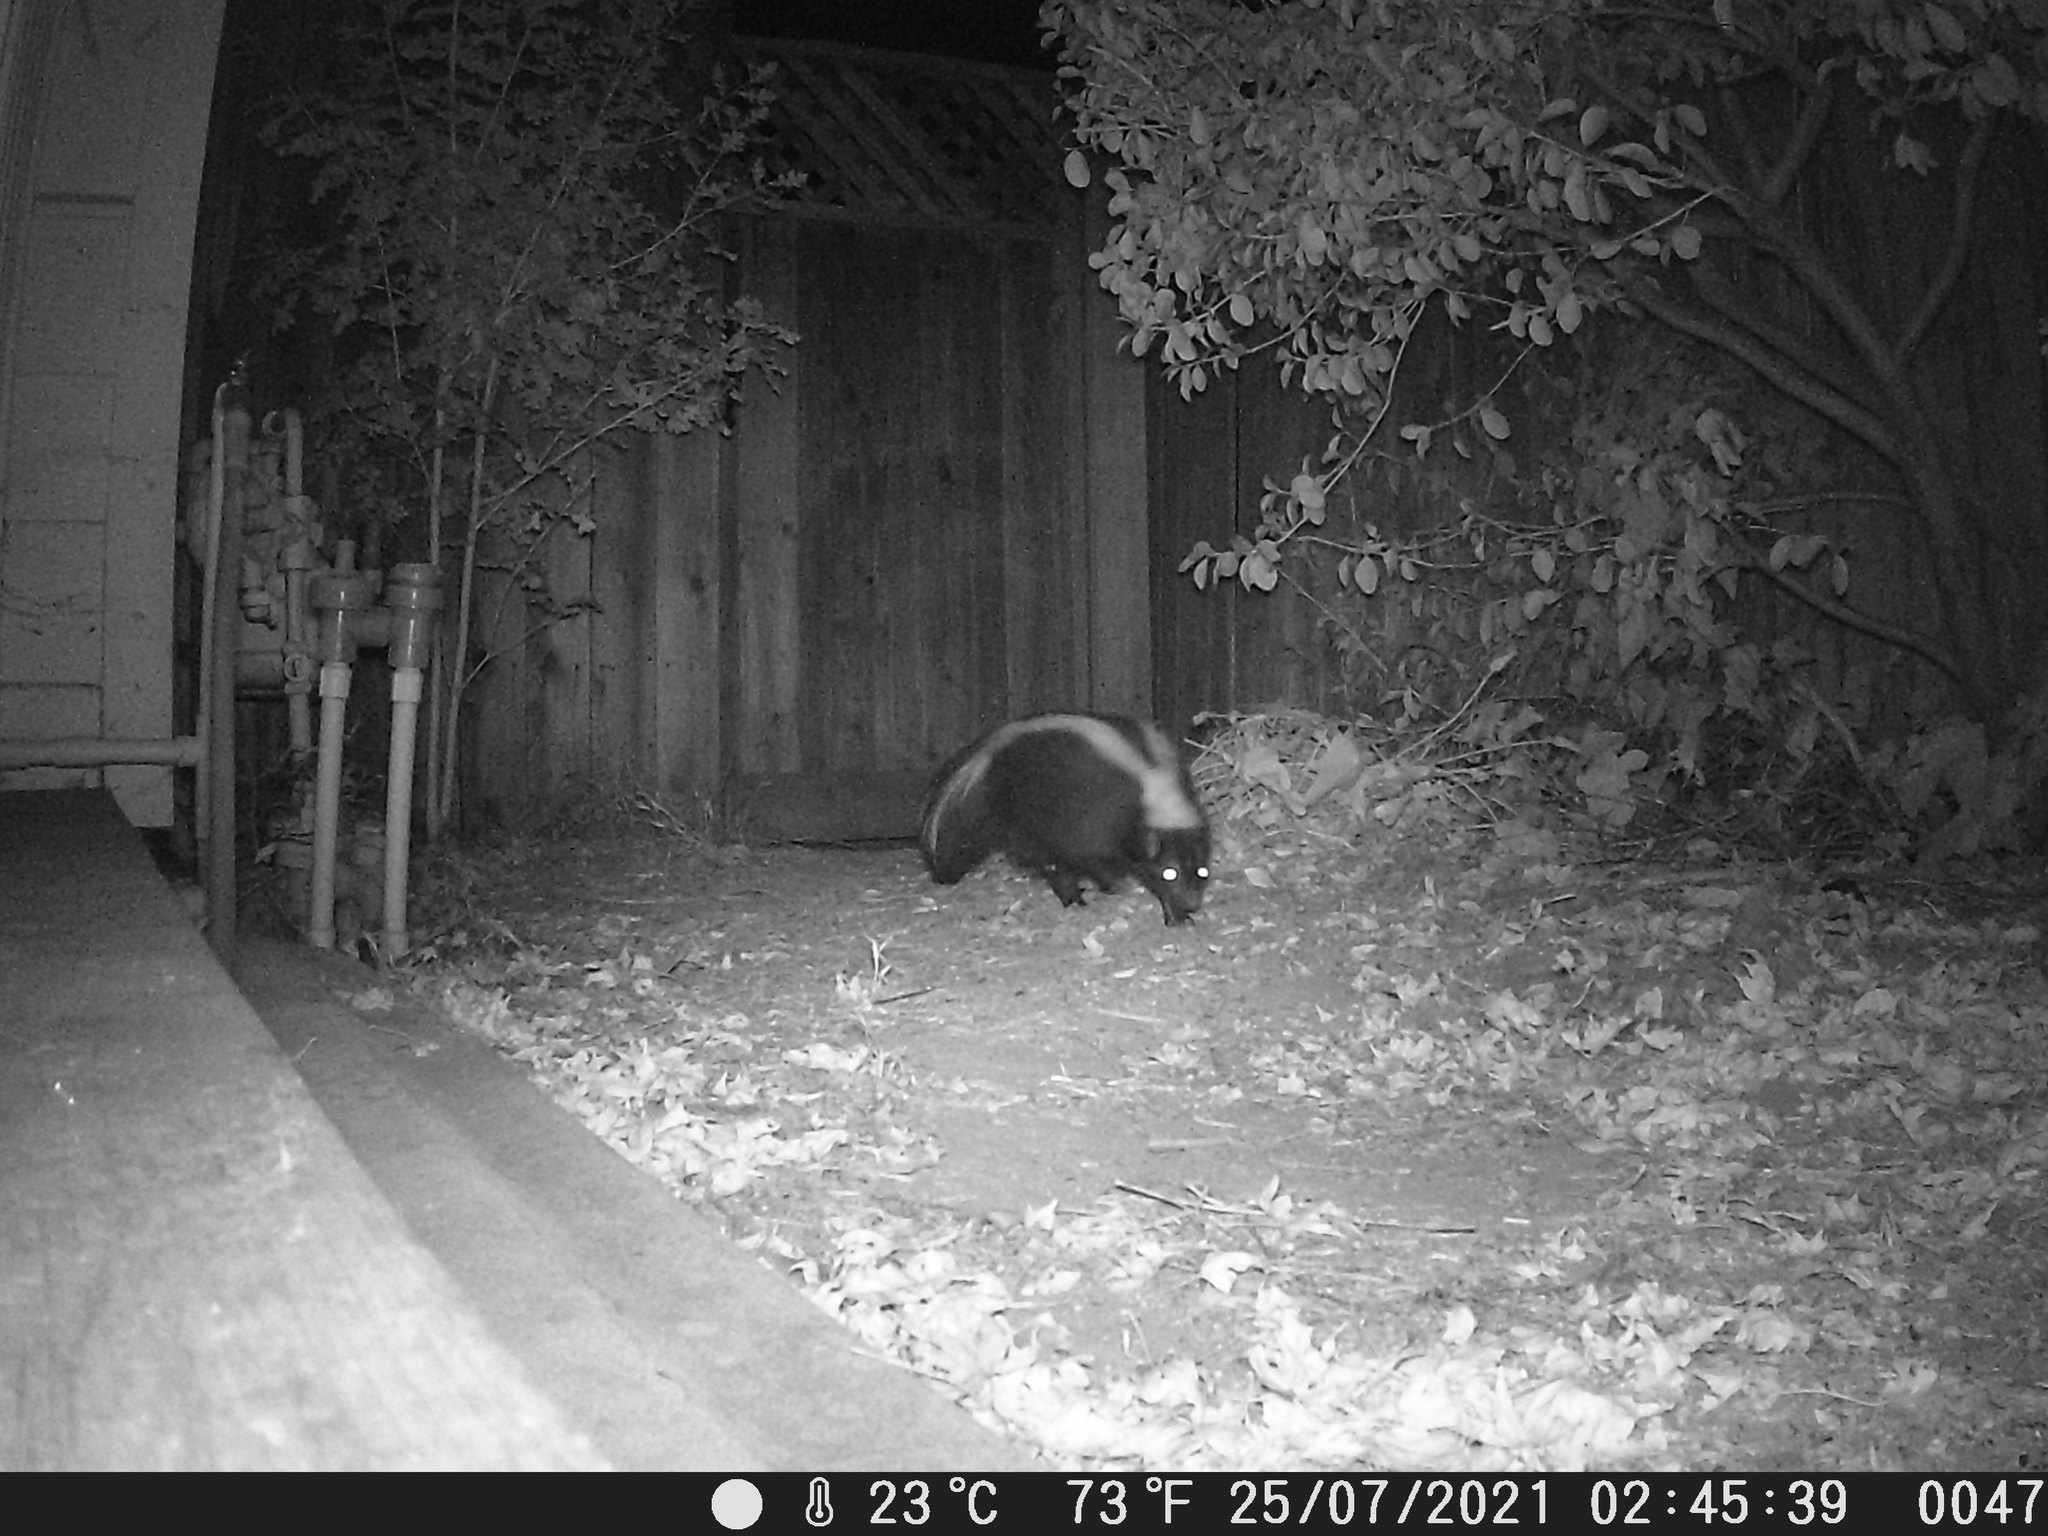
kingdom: Animalia
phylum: Chordata
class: Mammalia
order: Carnivora
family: Mephitidae
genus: Mephitis
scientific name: Mephitis mephitis
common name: Striped skunk
